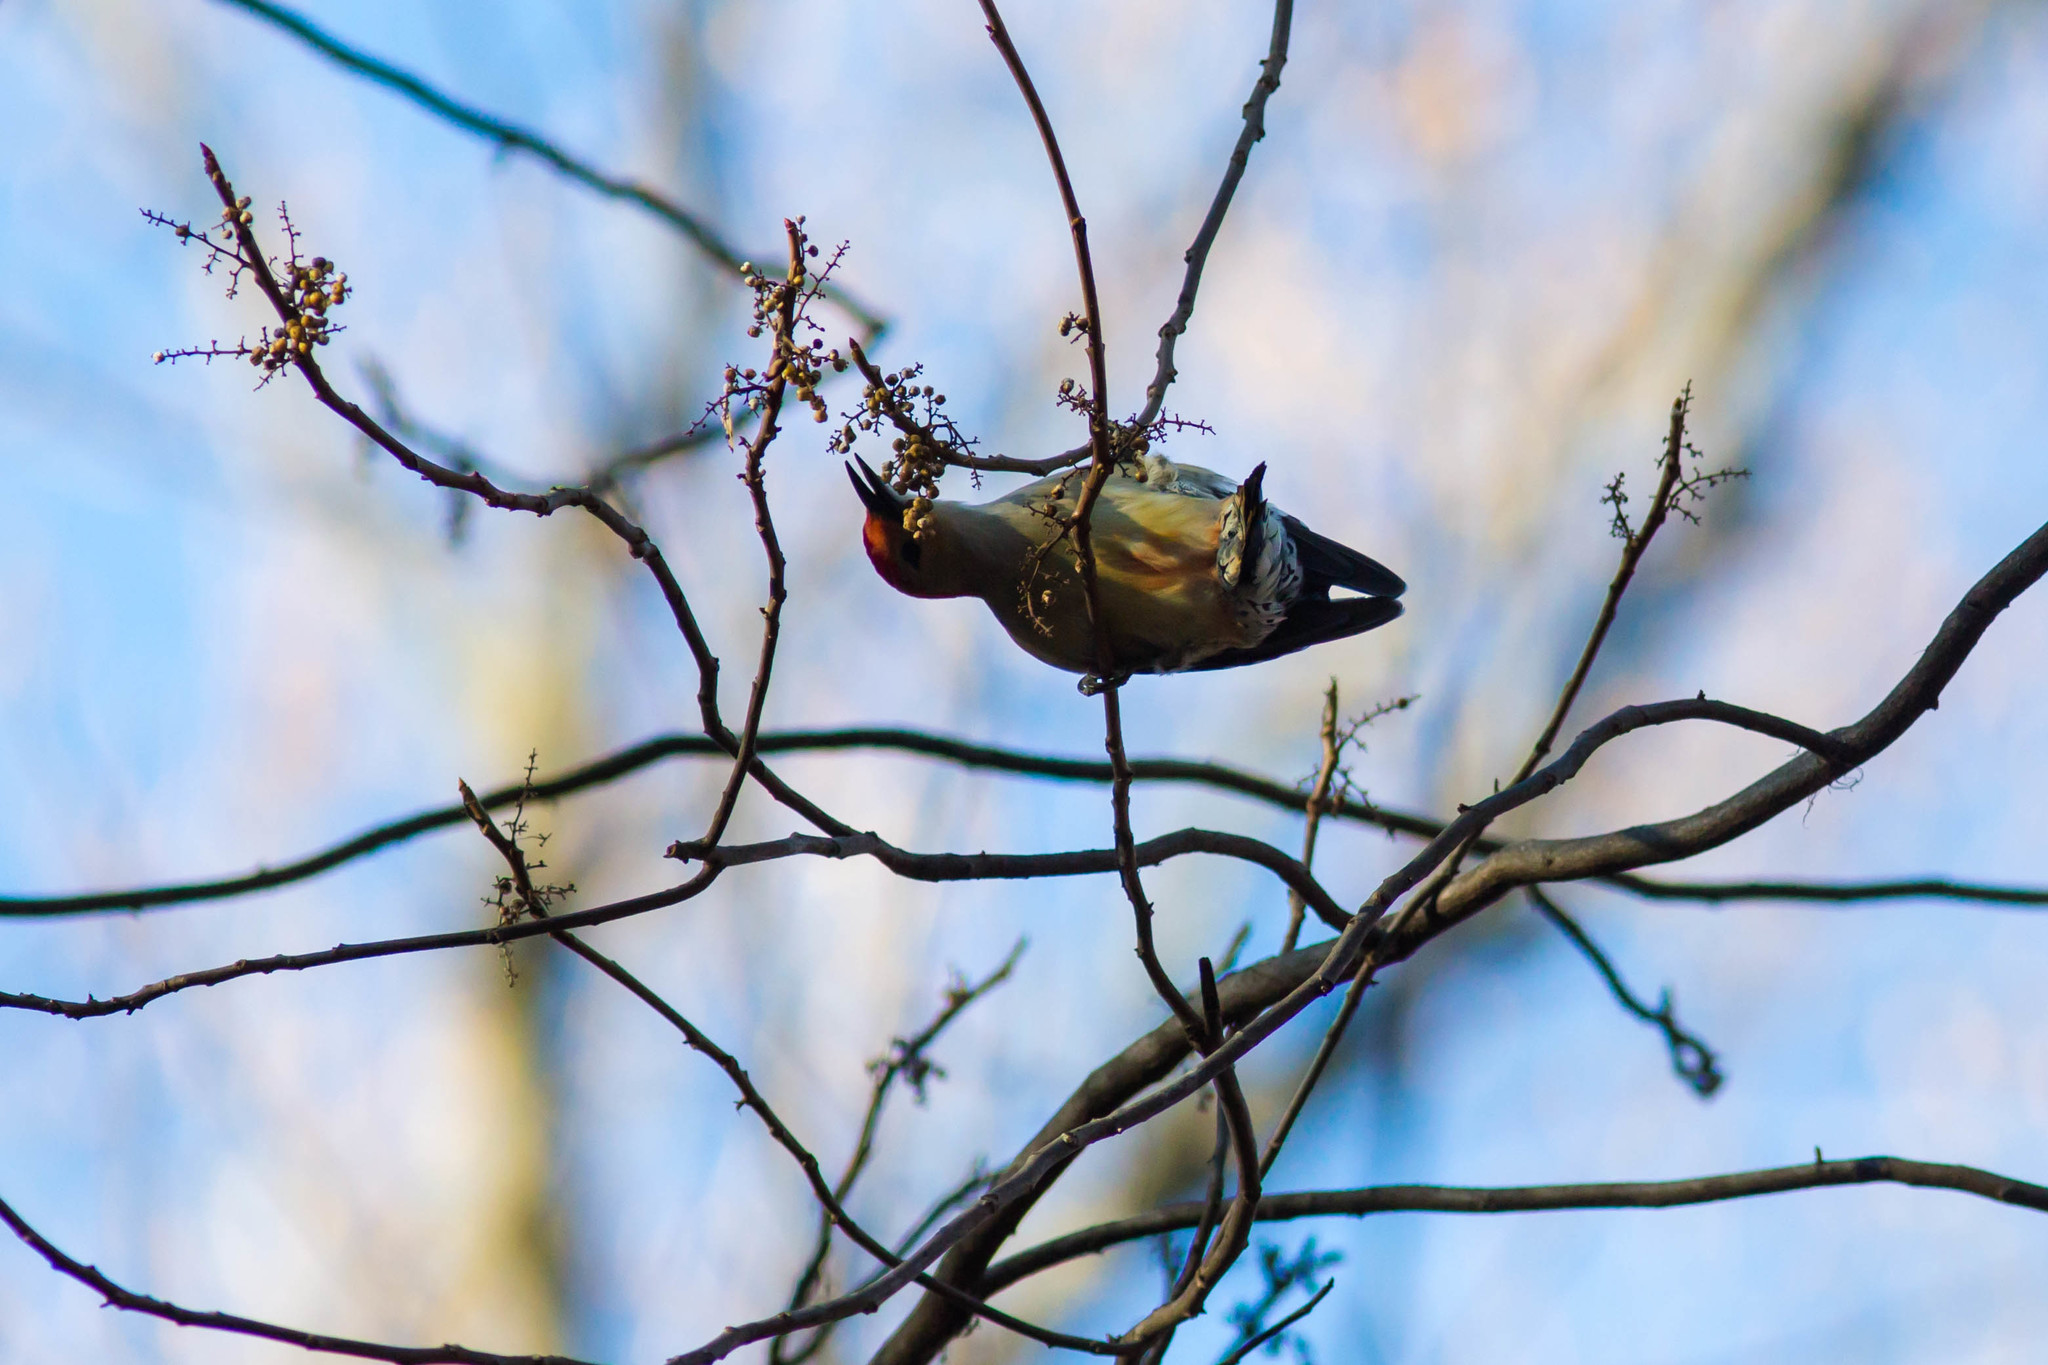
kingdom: Animalia
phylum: Chordata
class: Aves
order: Piciformes
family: Picidae
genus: Melanerpes
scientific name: Melanerpes carolinus
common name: Red-bellied woodpecker
